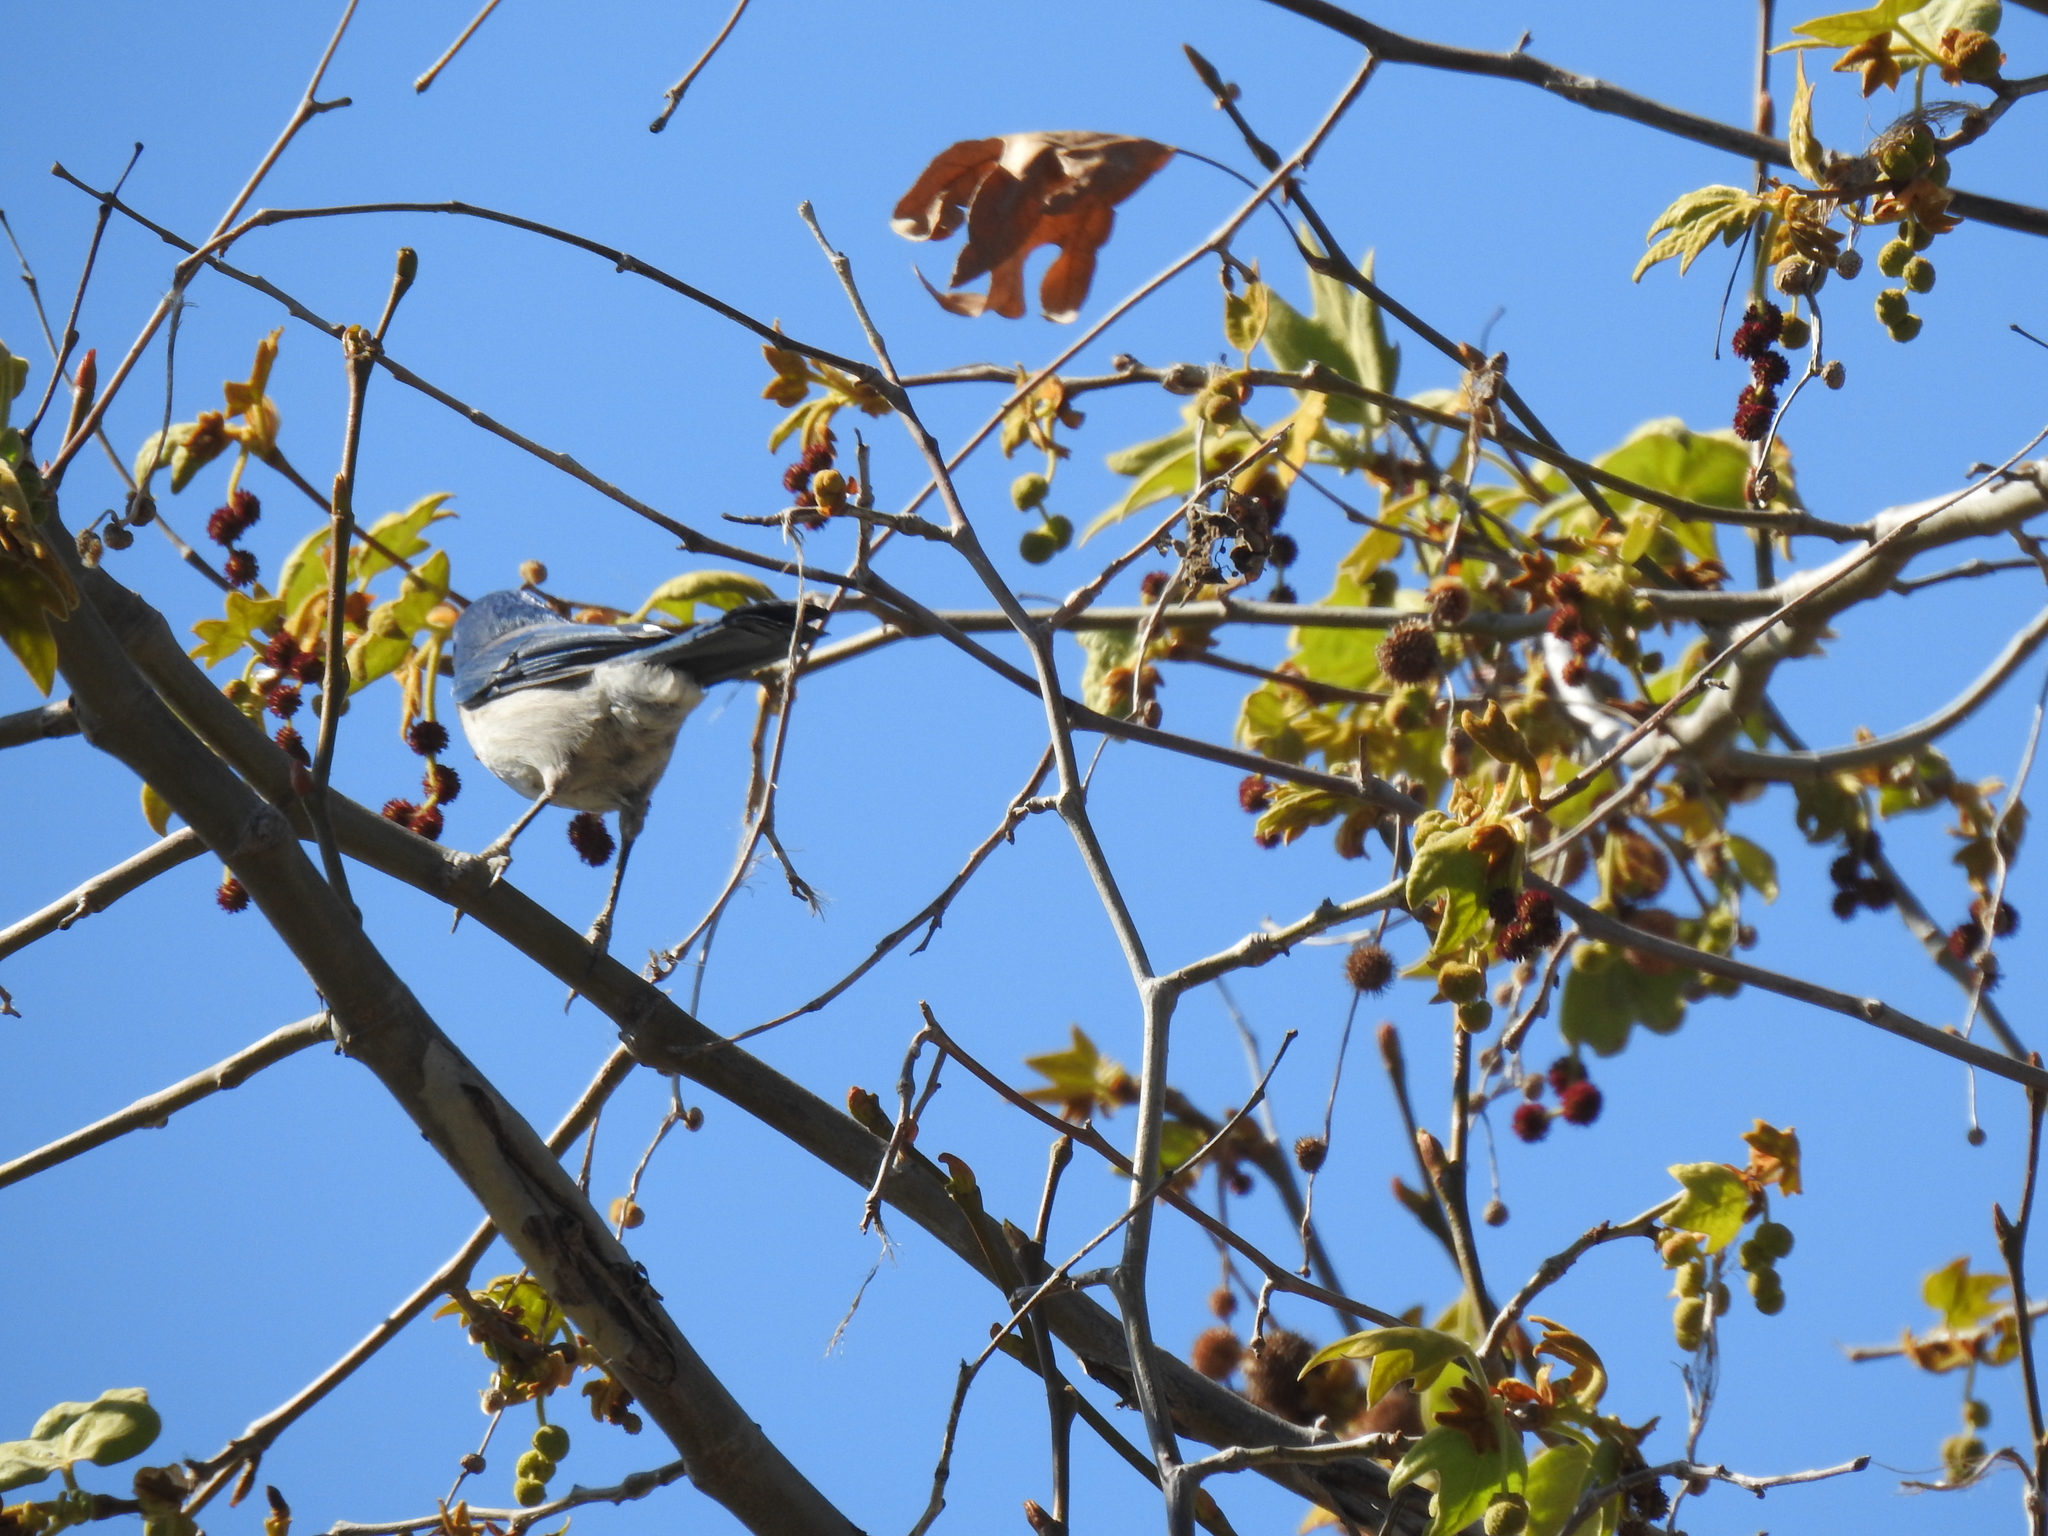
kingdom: Animalia
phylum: Chordata
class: Aves
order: Passeriformes
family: Corvidae
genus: Aphelocoma
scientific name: Aphelocoma californica
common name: California scrub-jay
